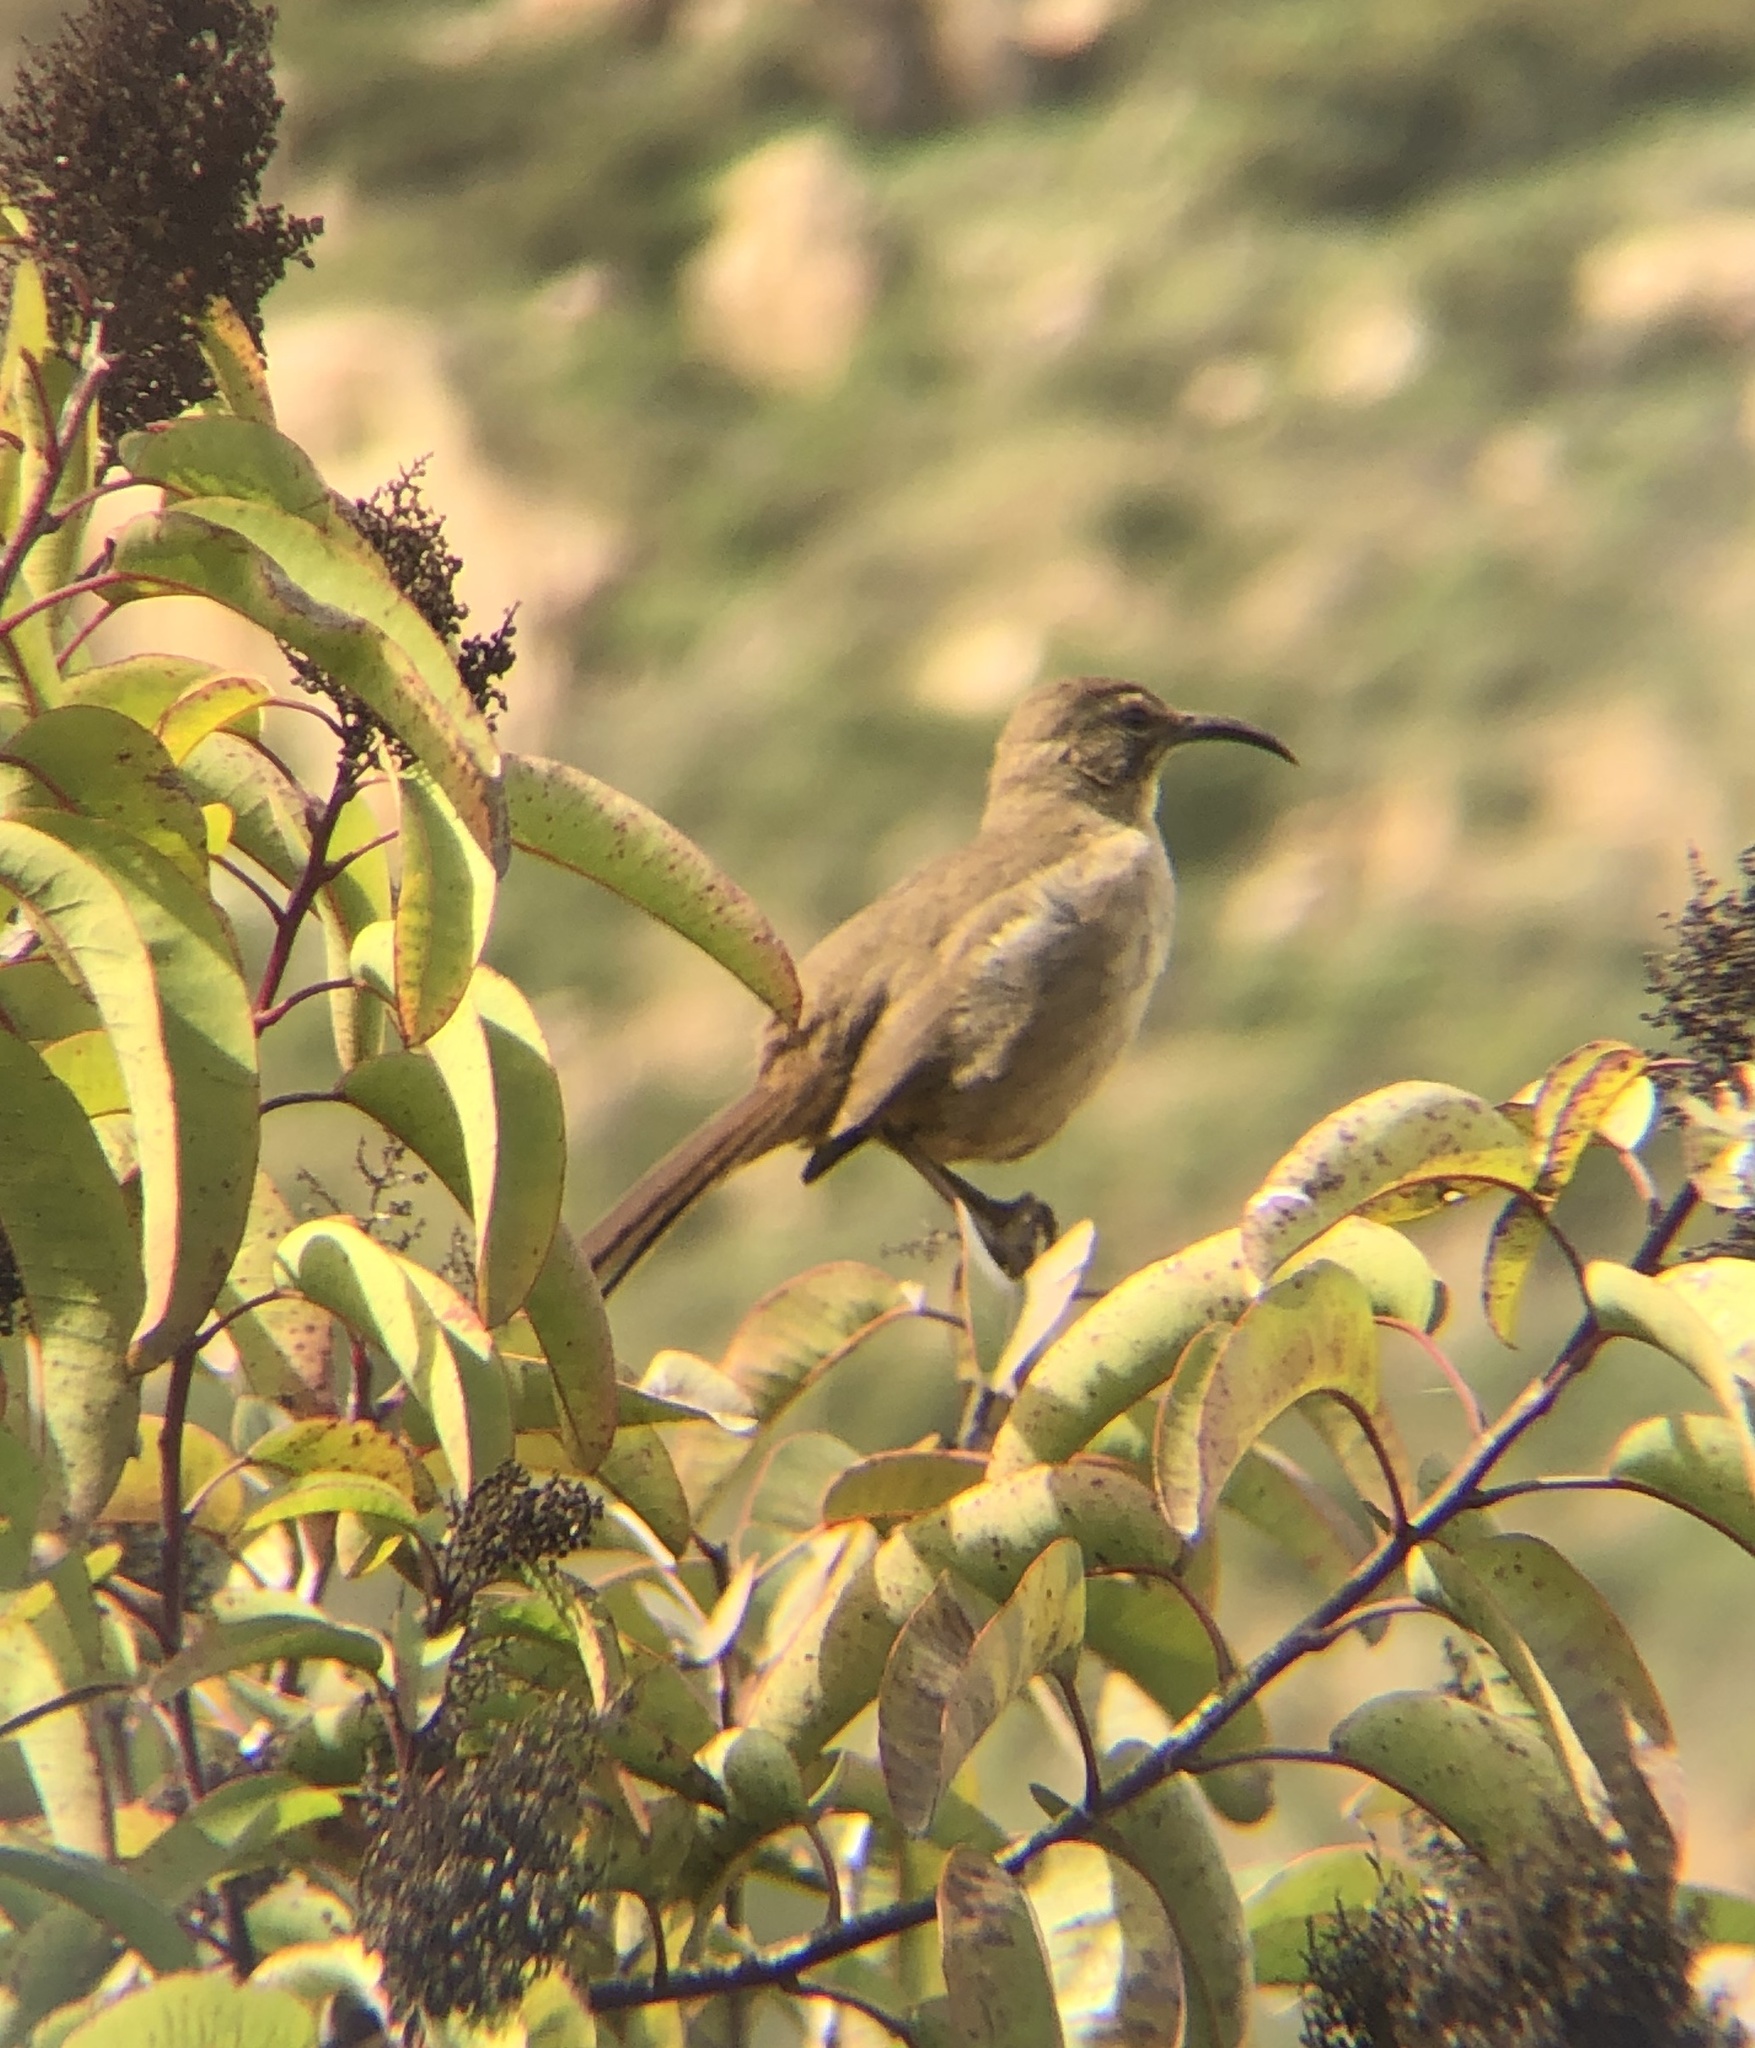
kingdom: Animalia
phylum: Chordata
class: Aves
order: Passeriformes
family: Mimidae
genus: Toxostoma
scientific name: Toxostoma redivivum
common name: California thrasher
